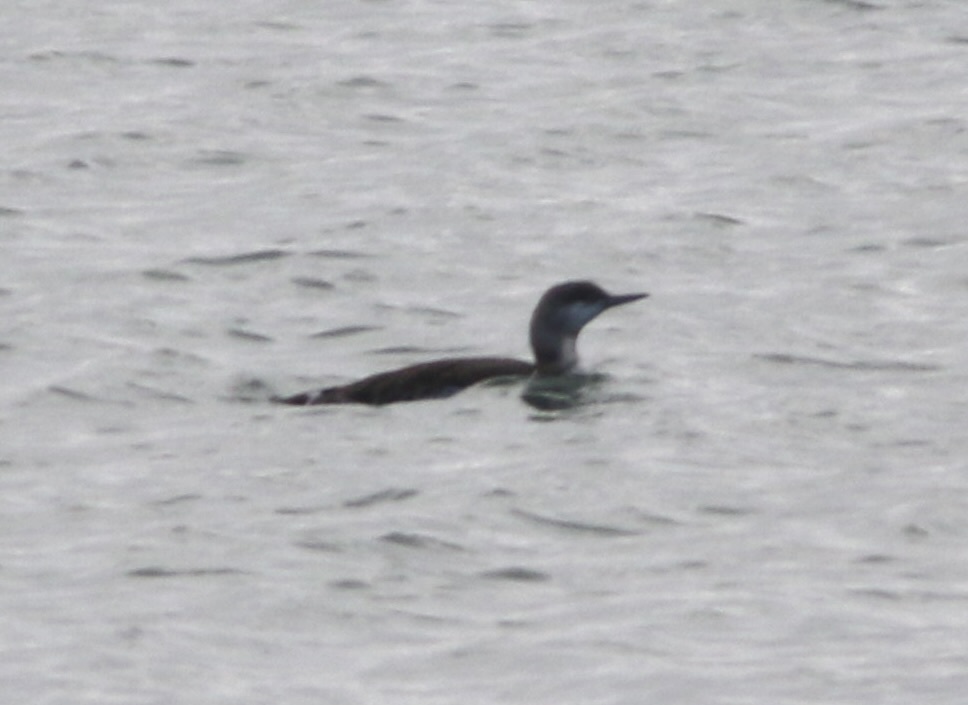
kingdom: Animalia
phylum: Chordata
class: Aves
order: Gaviiformes
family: Gaviidae
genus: Gavia
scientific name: Gavia stellata
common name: Red-throated loon
